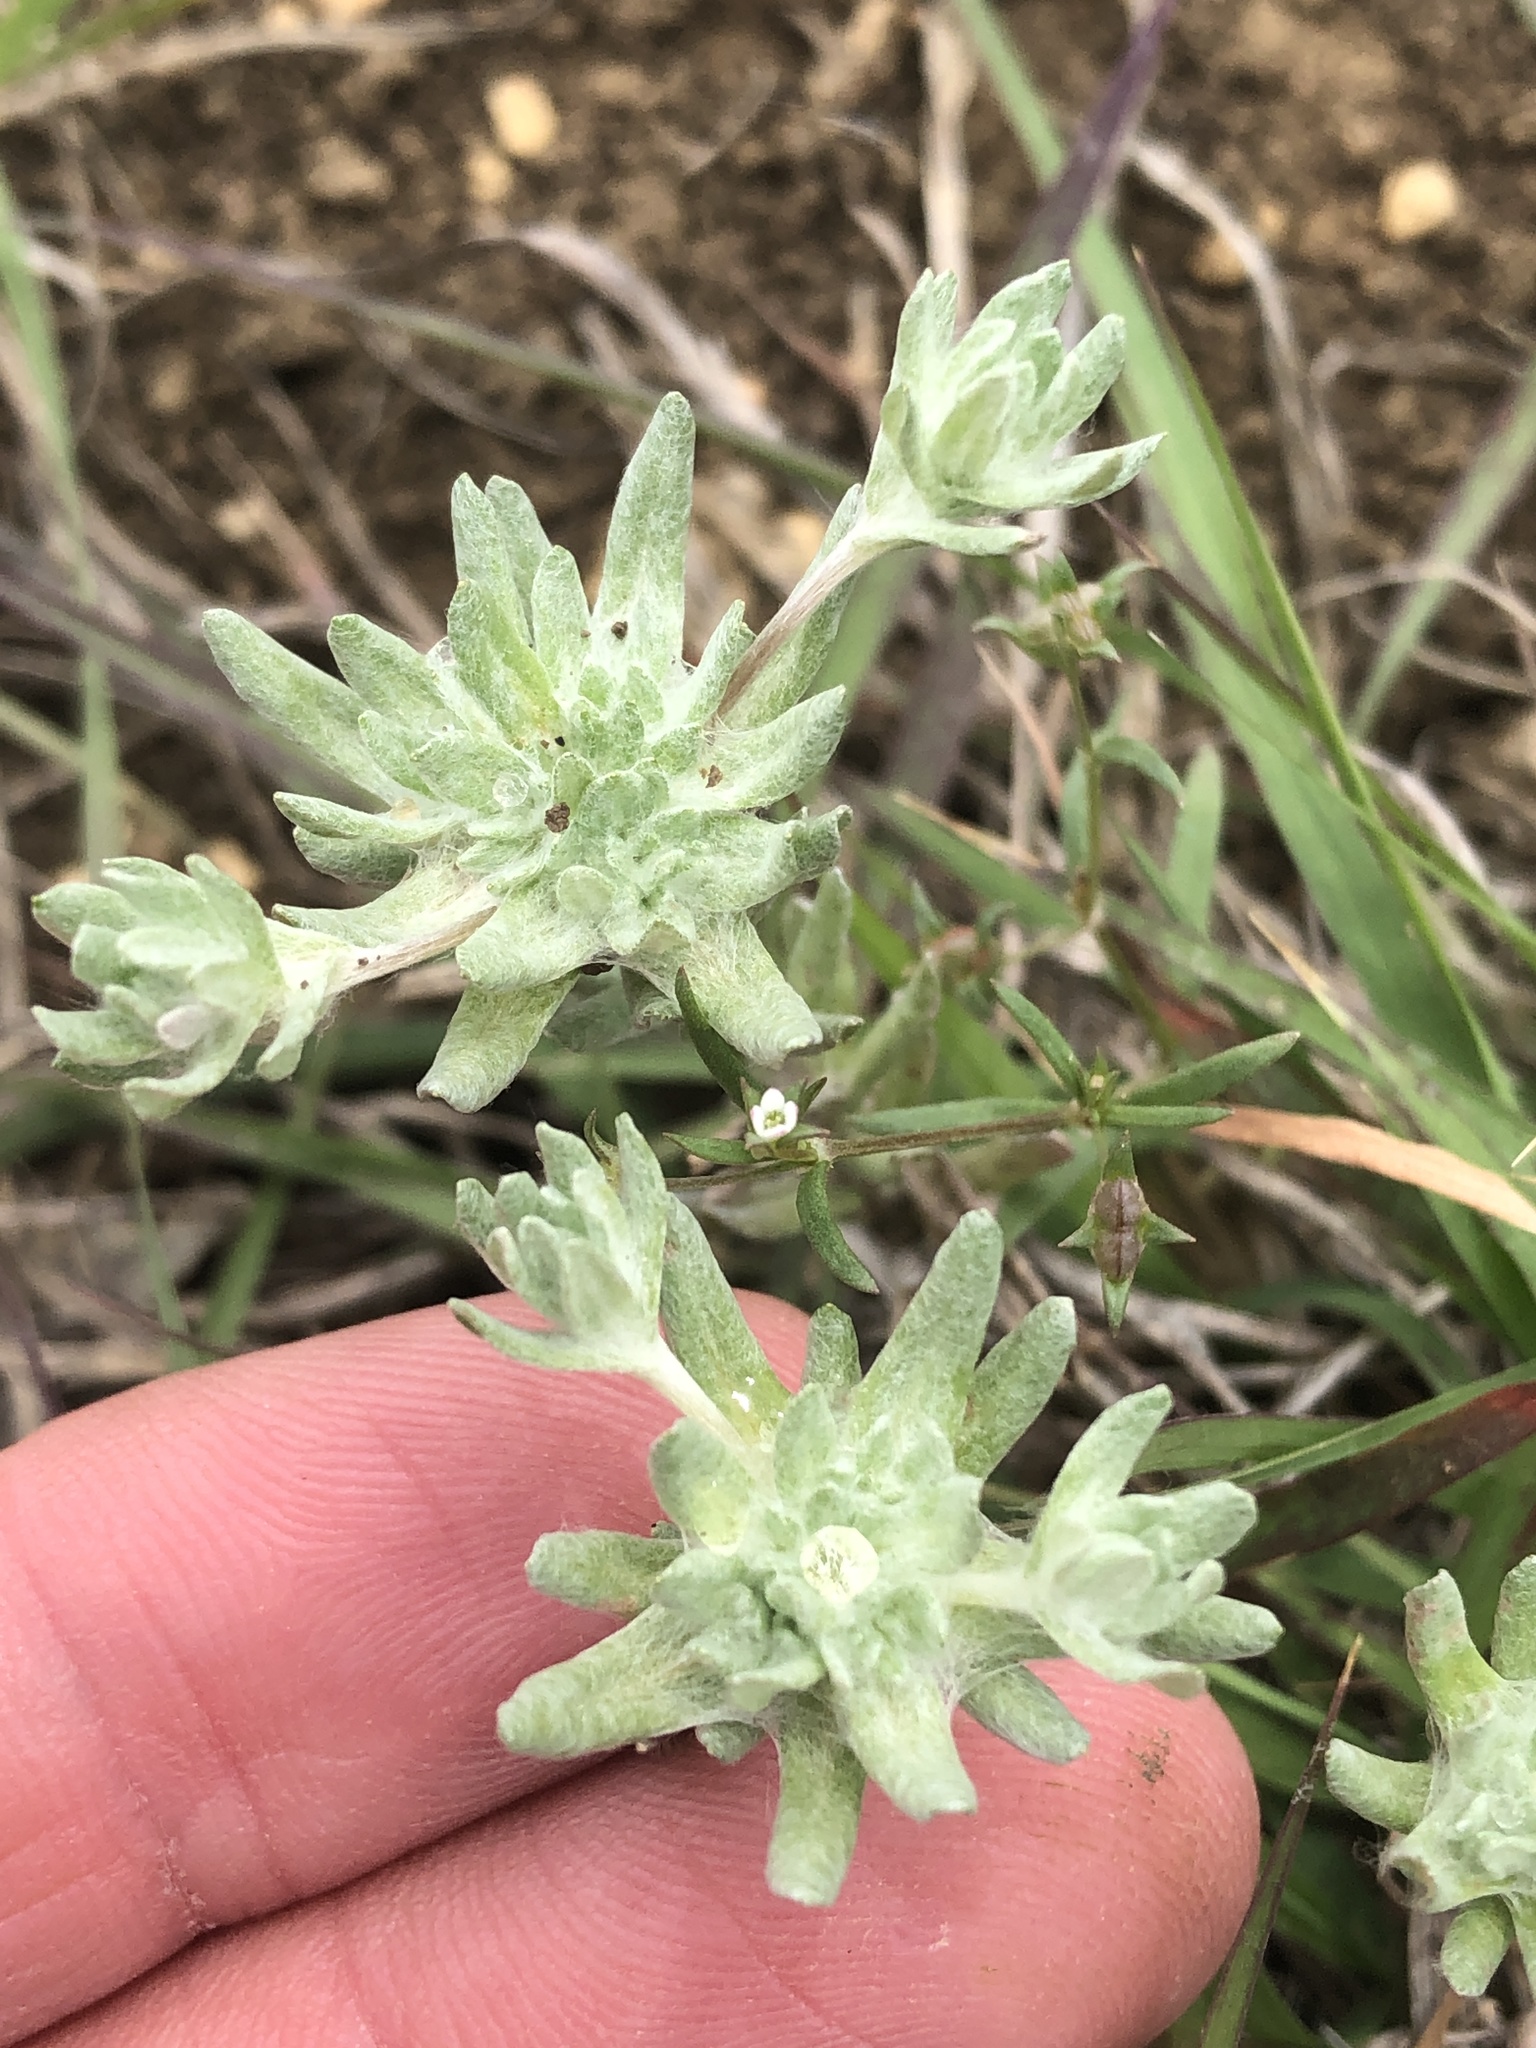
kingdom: Plantae
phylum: Tracheophyta
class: Magnoliopsida
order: Asterales
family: Asteraceae
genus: Diaperia
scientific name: Diaperia prolifera
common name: Big-head rabbit-tobacco
